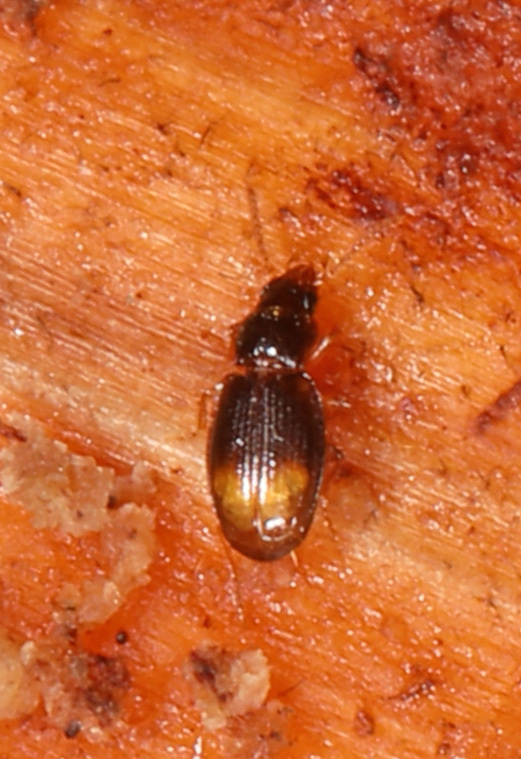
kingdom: Animalia
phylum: Arthropoda
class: Insecta
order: Coleoptera
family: Carabidae
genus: Mioptachys
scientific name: Mioptachys flavicauda
